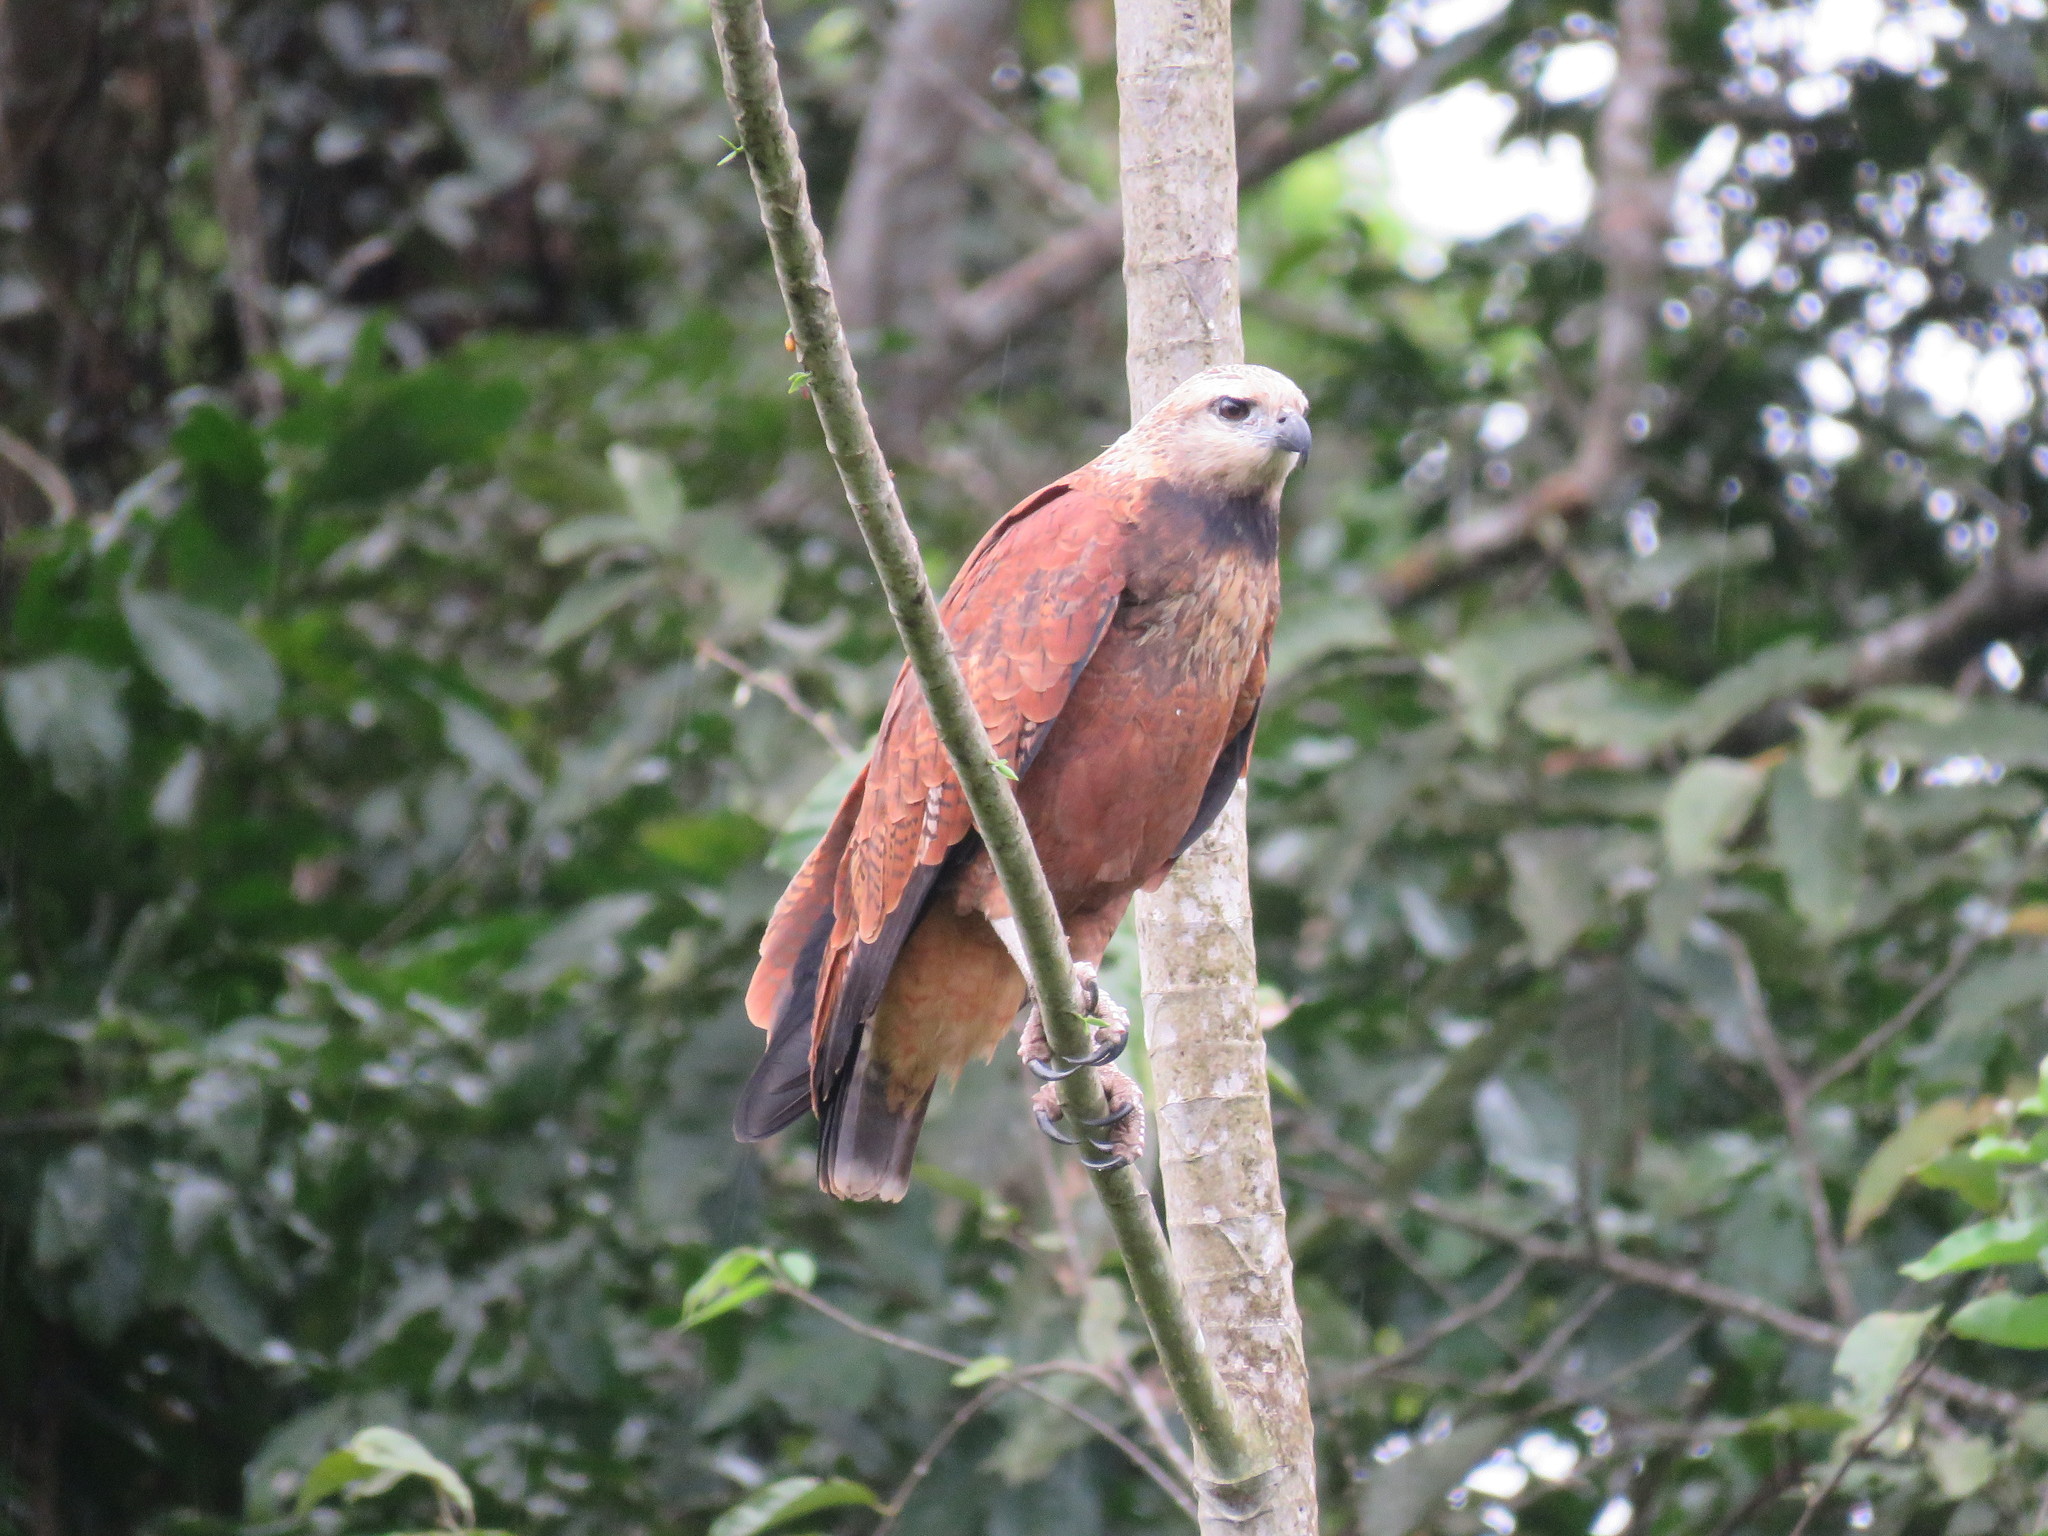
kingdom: Animalia
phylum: Chordata
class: Aves
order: Accipitriformes
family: Accipitridae
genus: Busarellus
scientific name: Busarellus nigricollis
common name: Black-collared hawk
